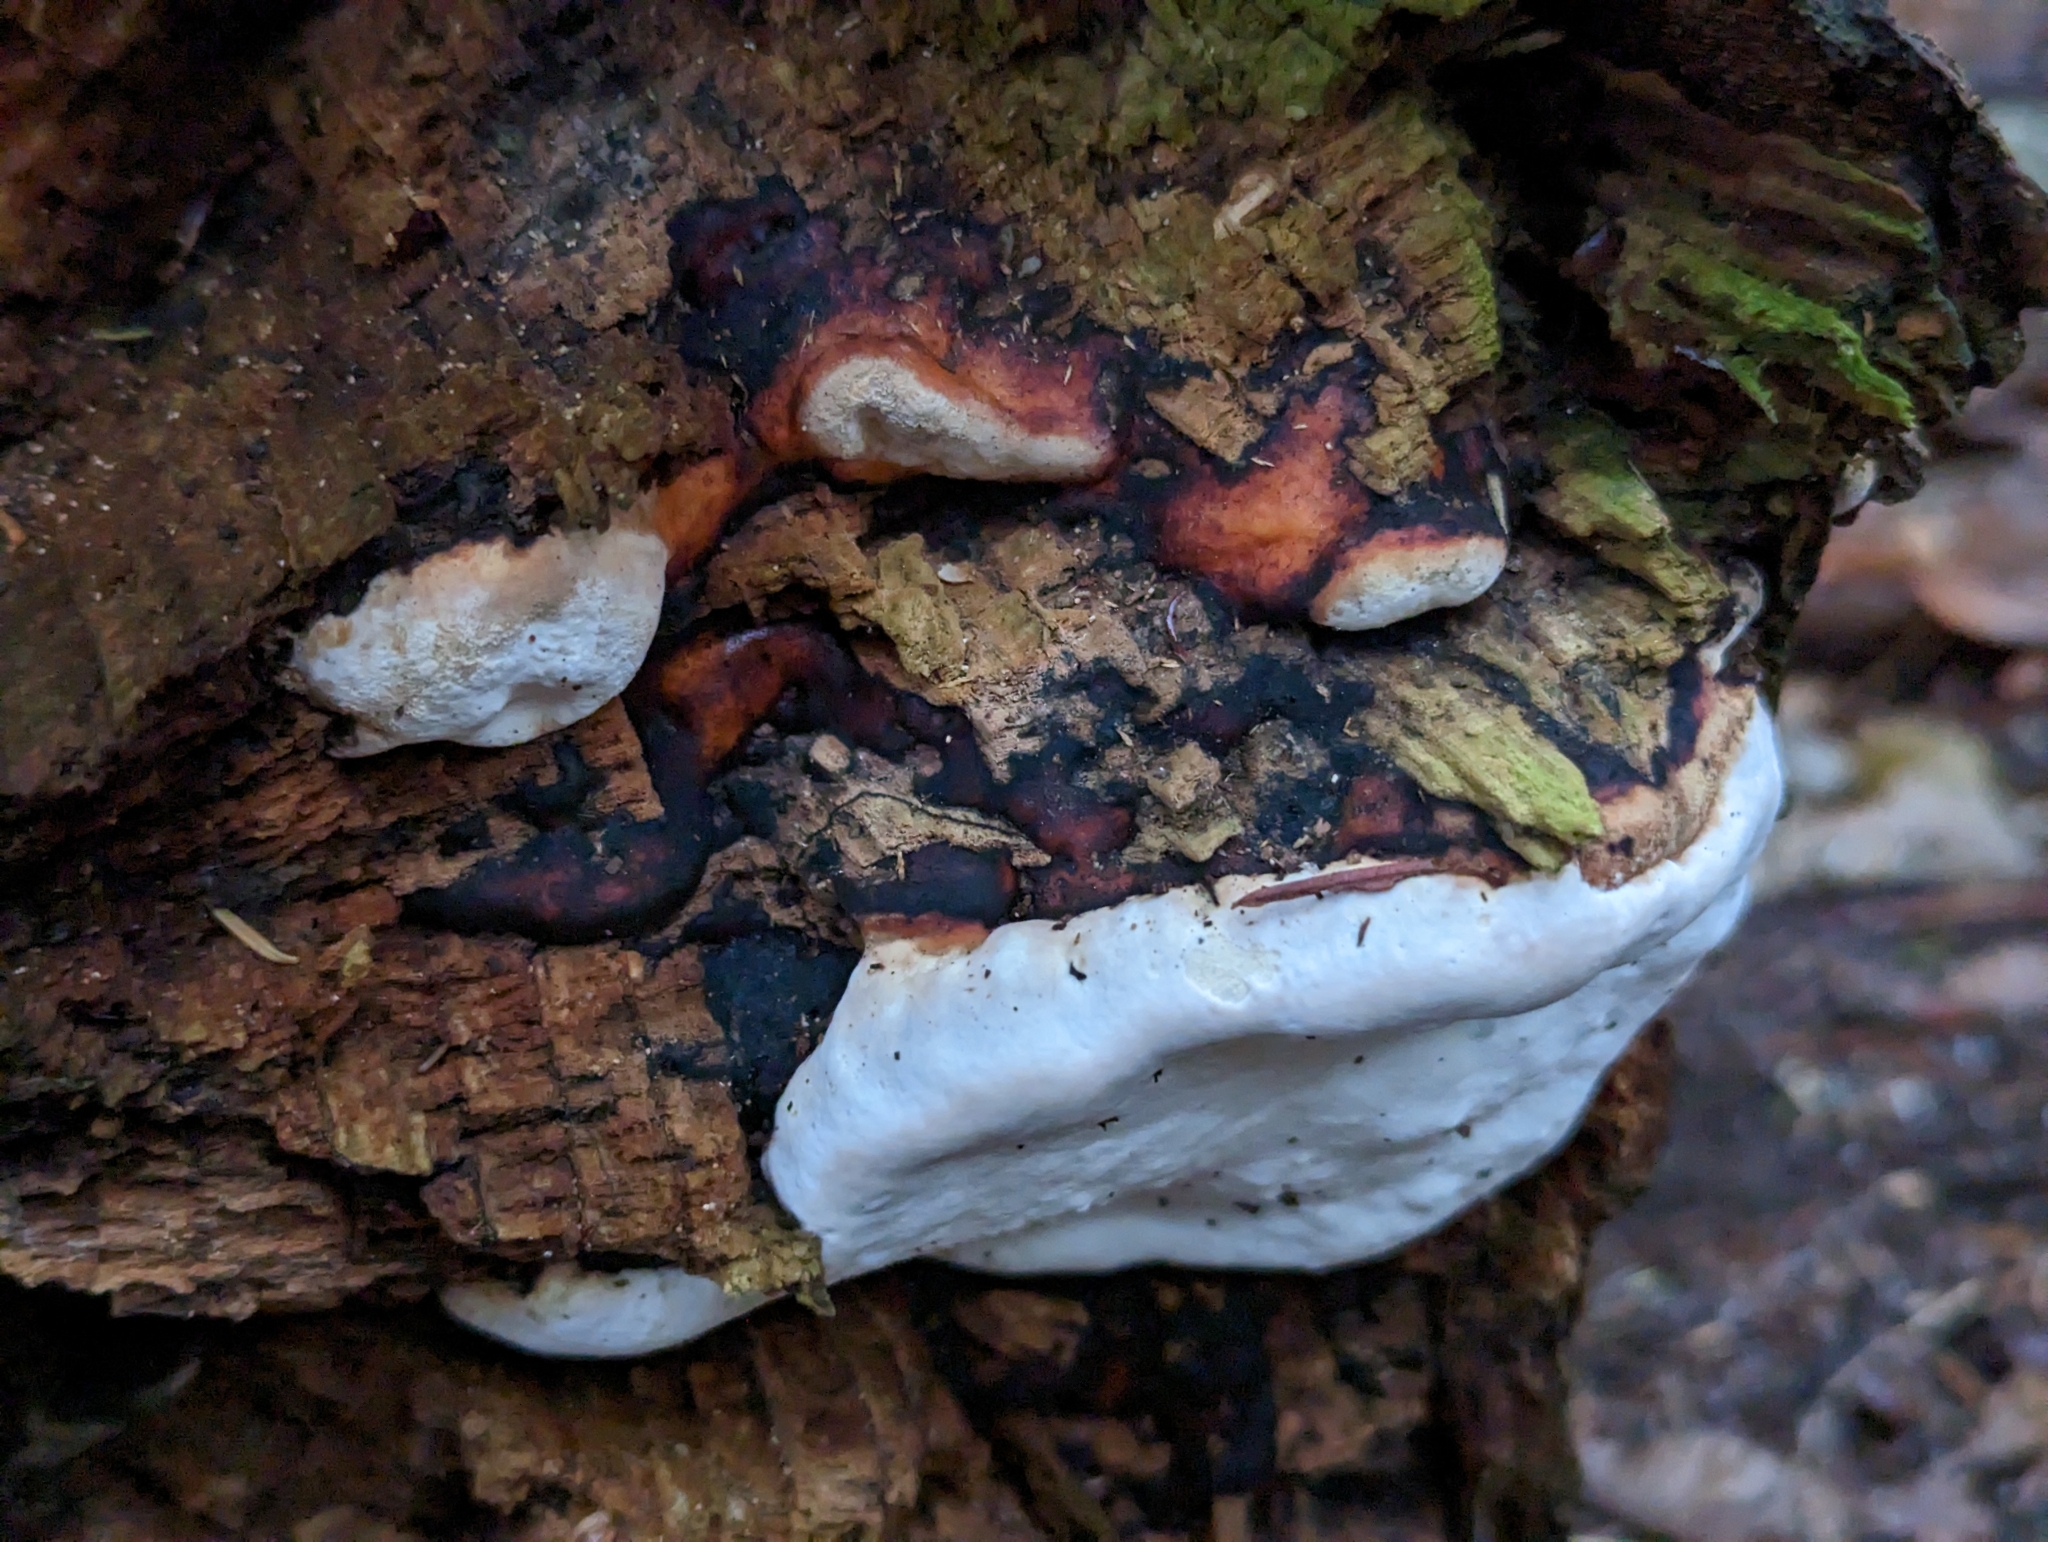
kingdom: Fungi
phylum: Basidiomycota
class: Agaricomycetes
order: Polyporales
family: Fomitopsidaceae
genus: Fomitopsis
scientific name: Fomitopsis mounceae
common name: Northern red belt
